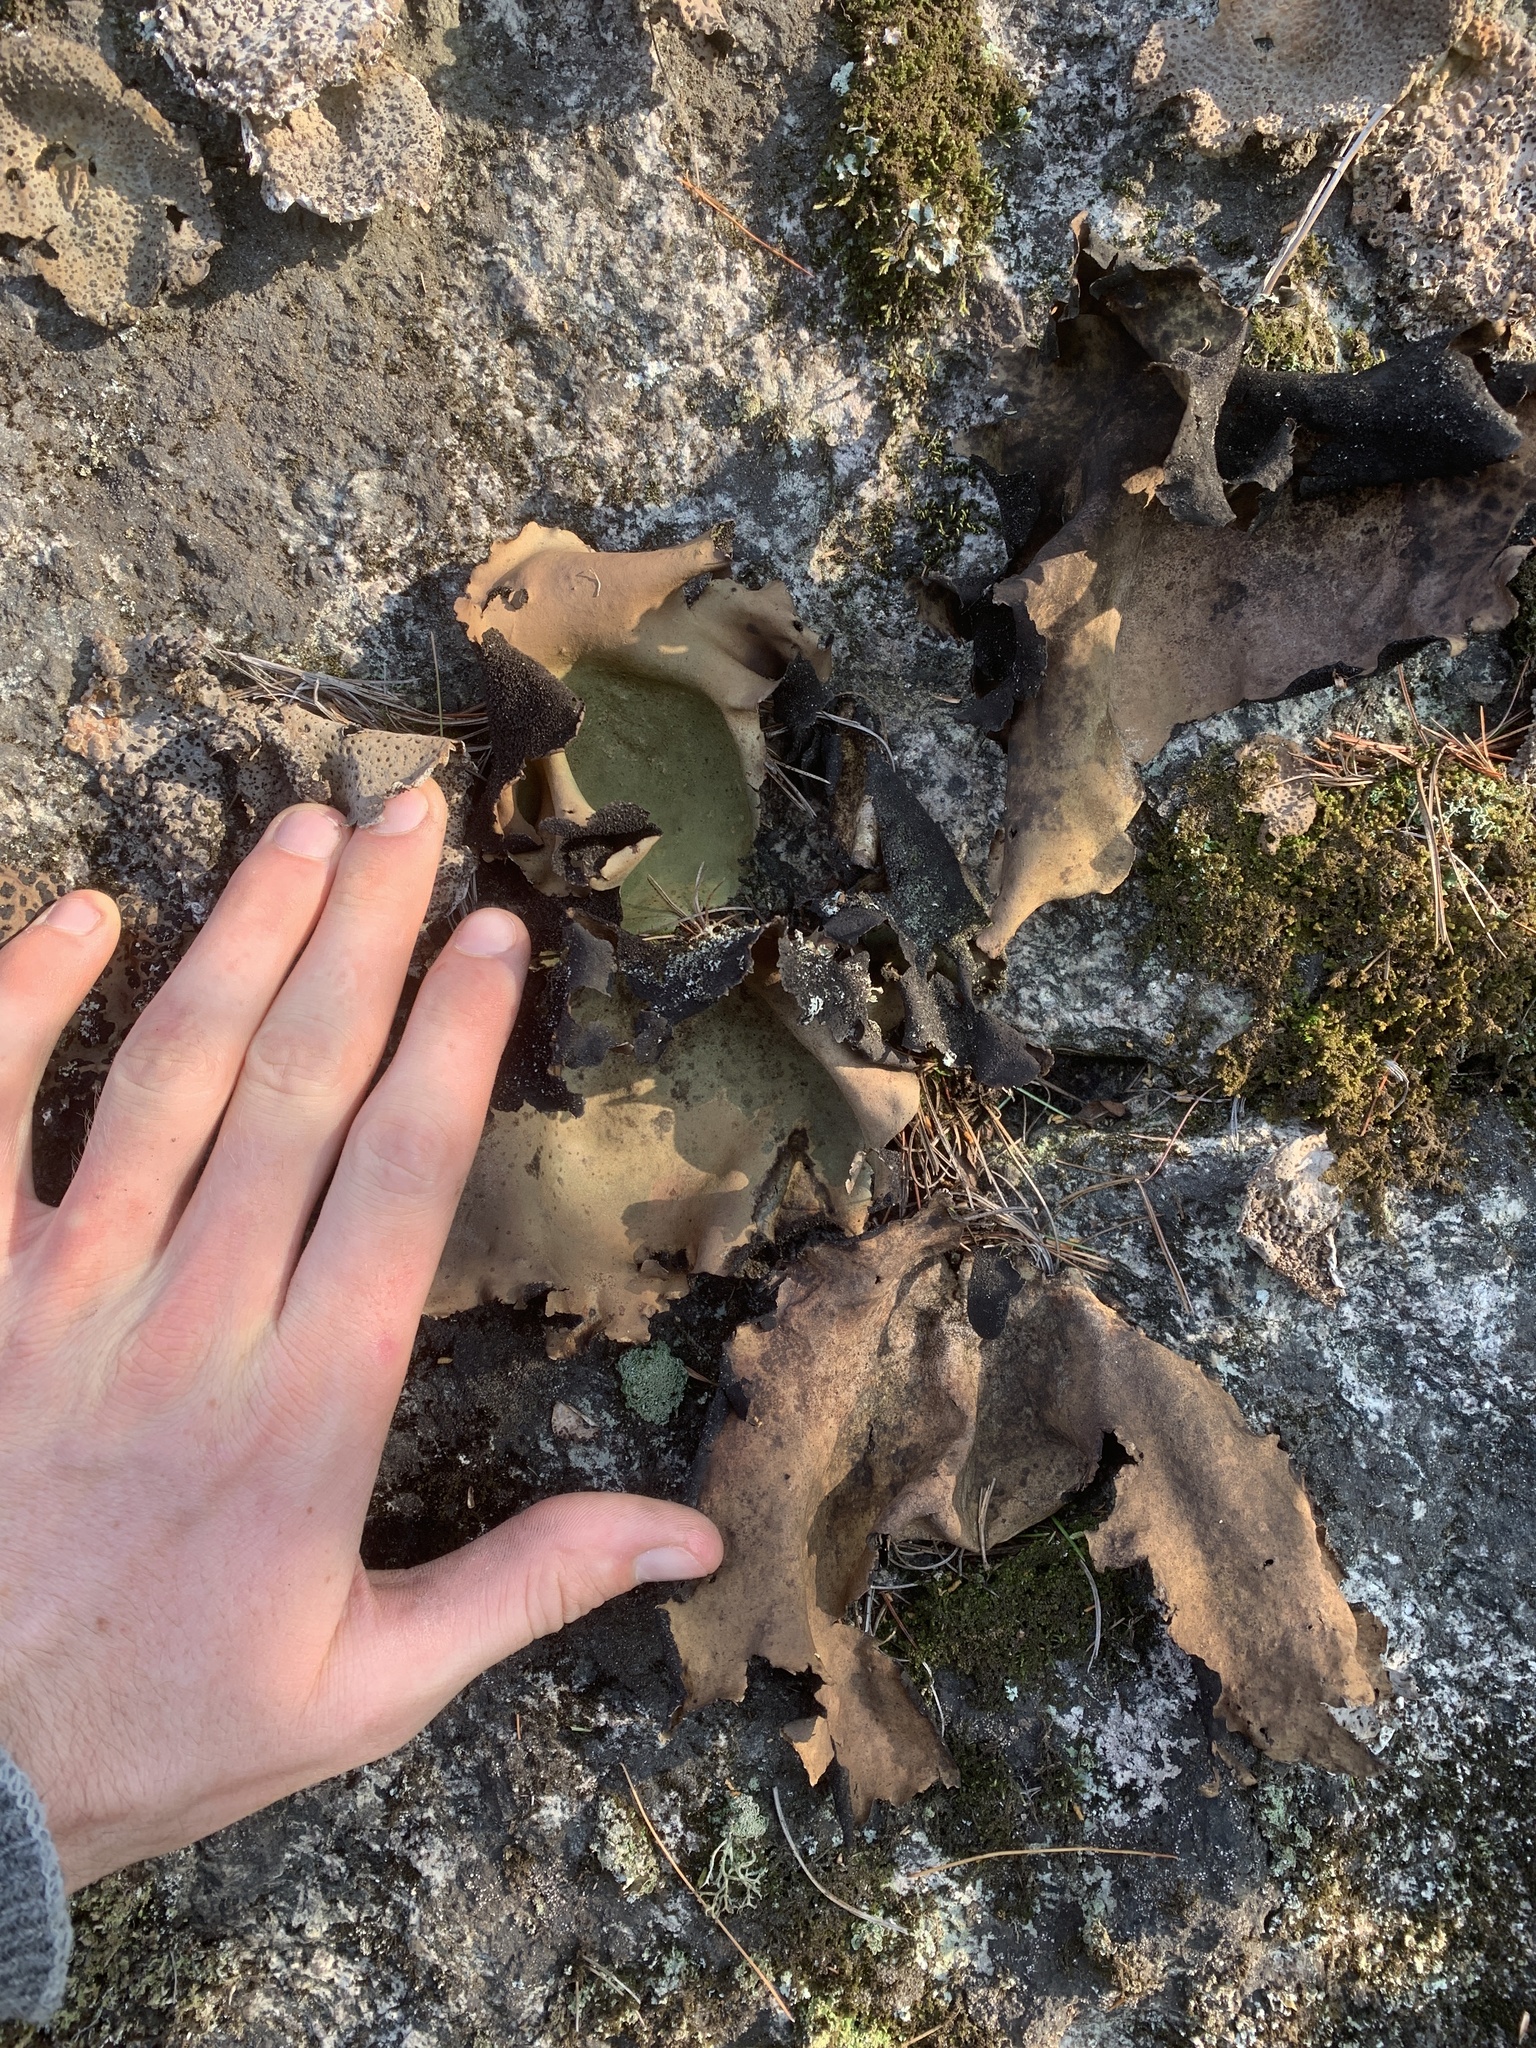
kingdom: Fungi
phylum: Ascomycota
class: Lecanoromycetes
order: Umbilicariales
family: Umbilicariaceae
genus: Umbilicaria
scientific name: Umbilicaria mammulata
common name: Smooth rock tripe
